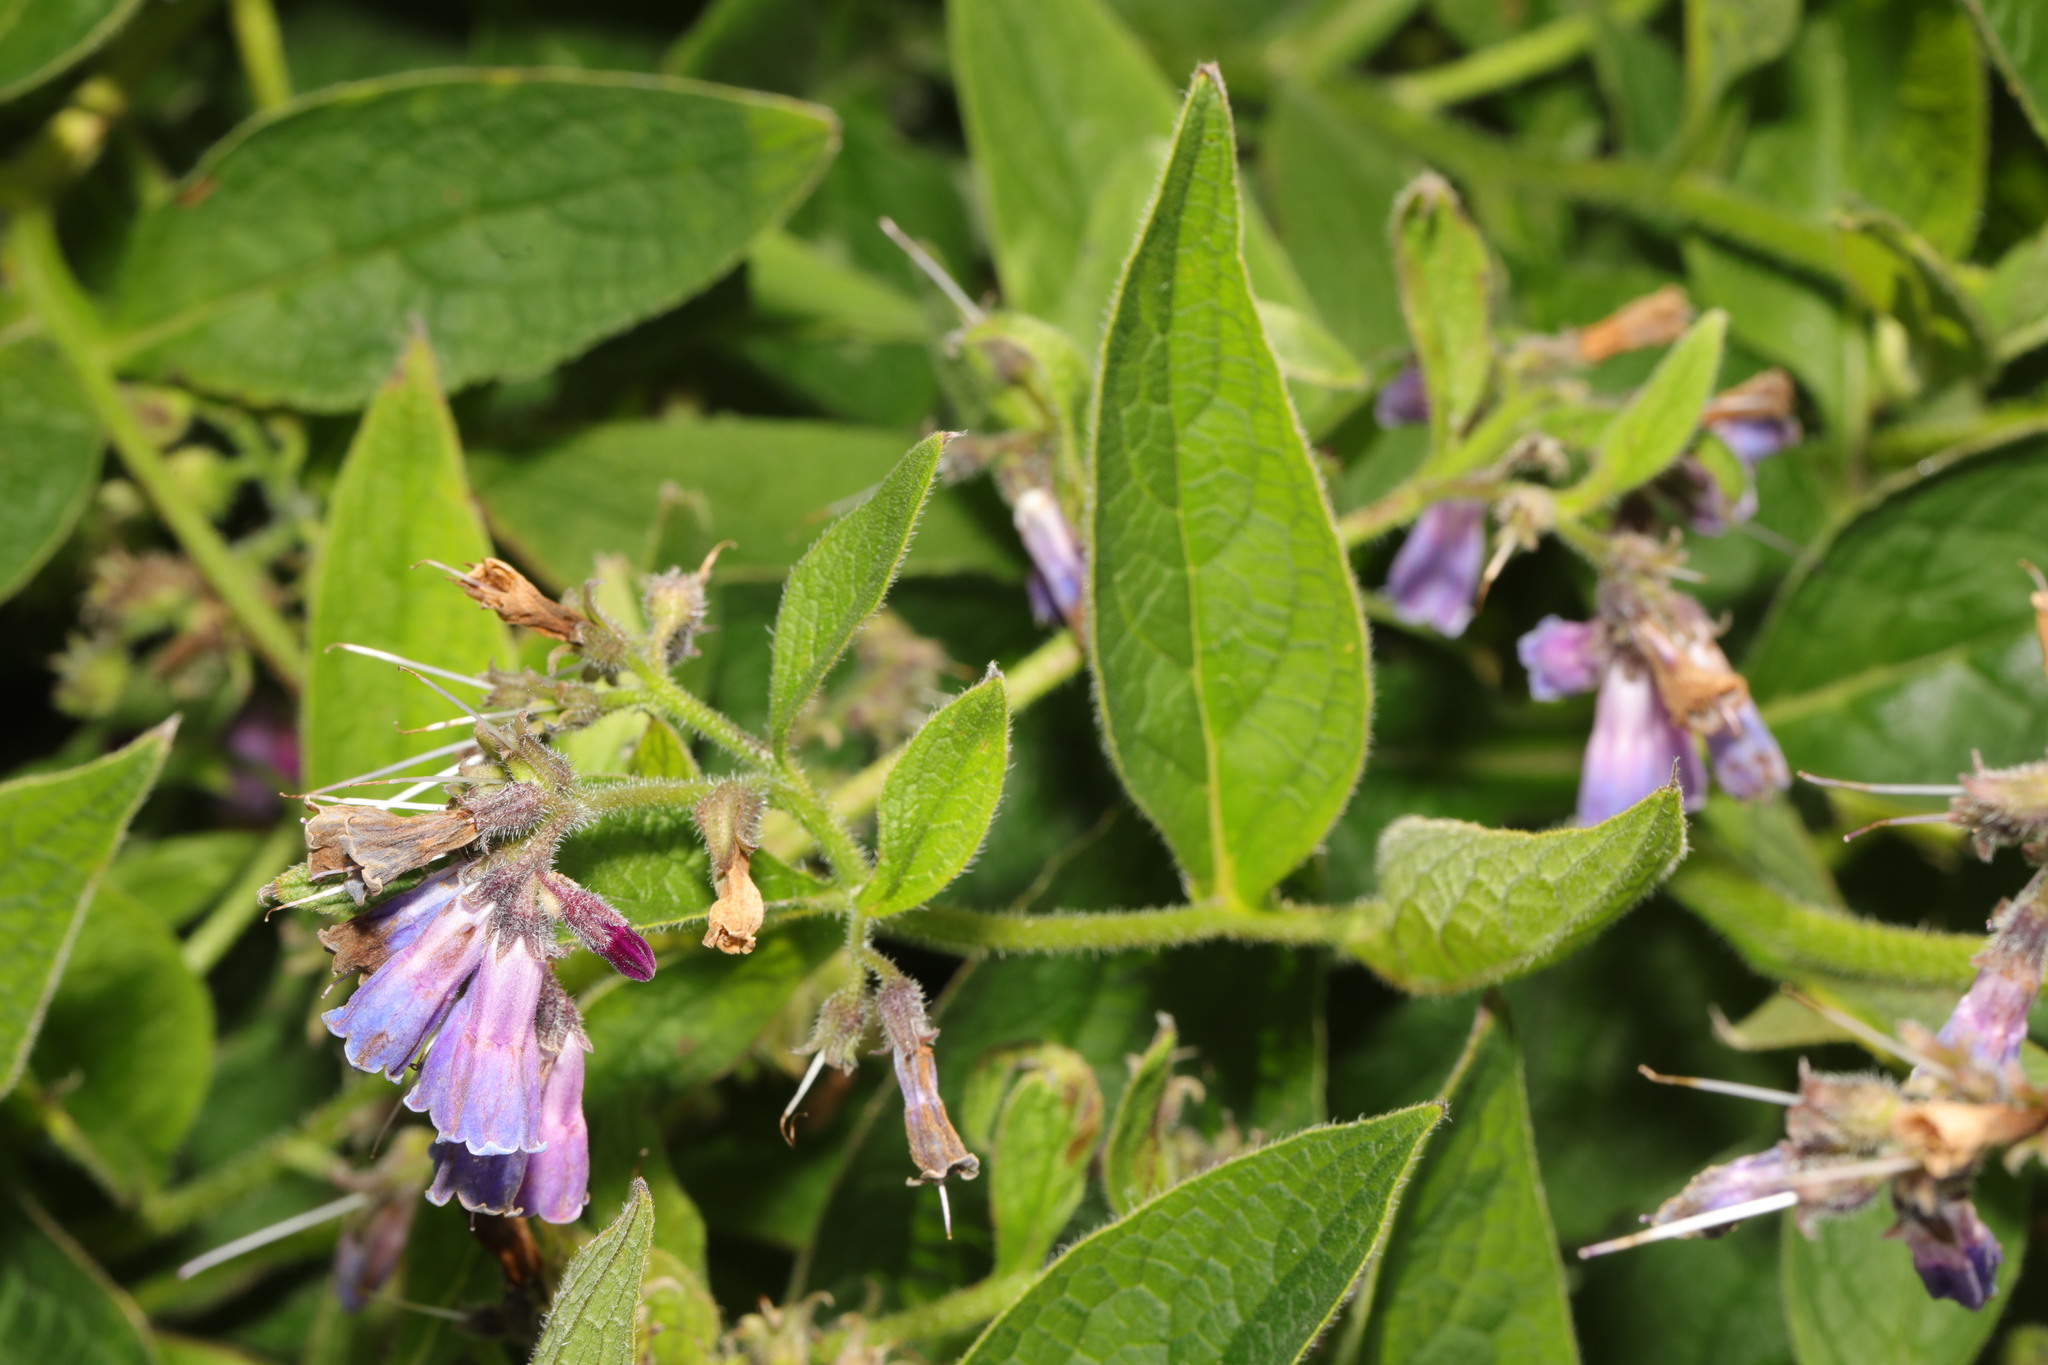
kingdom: Plantae
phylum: Tracheophyta
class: Magnoliopsida
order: Boraginales
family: Boraginaceae
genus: Symphytum
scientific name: Symphytum uplandicum
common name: Russian comfrey
